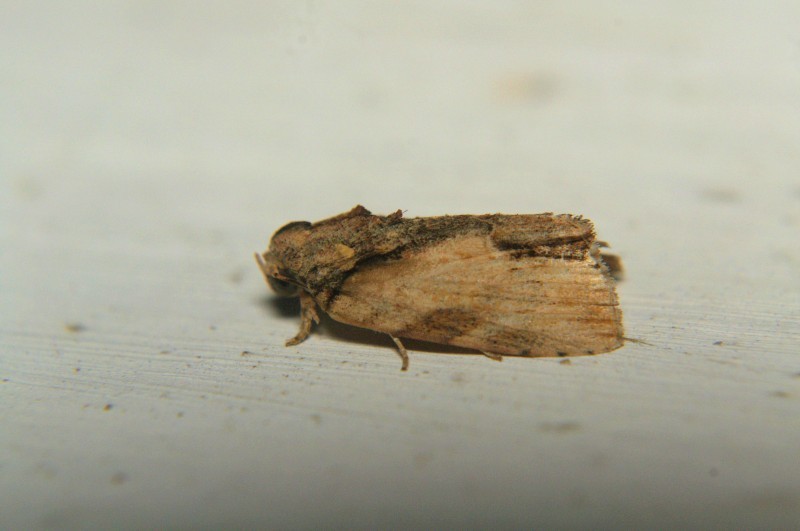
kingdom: Animalia
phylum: Arthropoda
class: Insecta
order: Lepidoptera
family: Nolidae
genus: Etanna
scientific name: Etanna breviuscula
